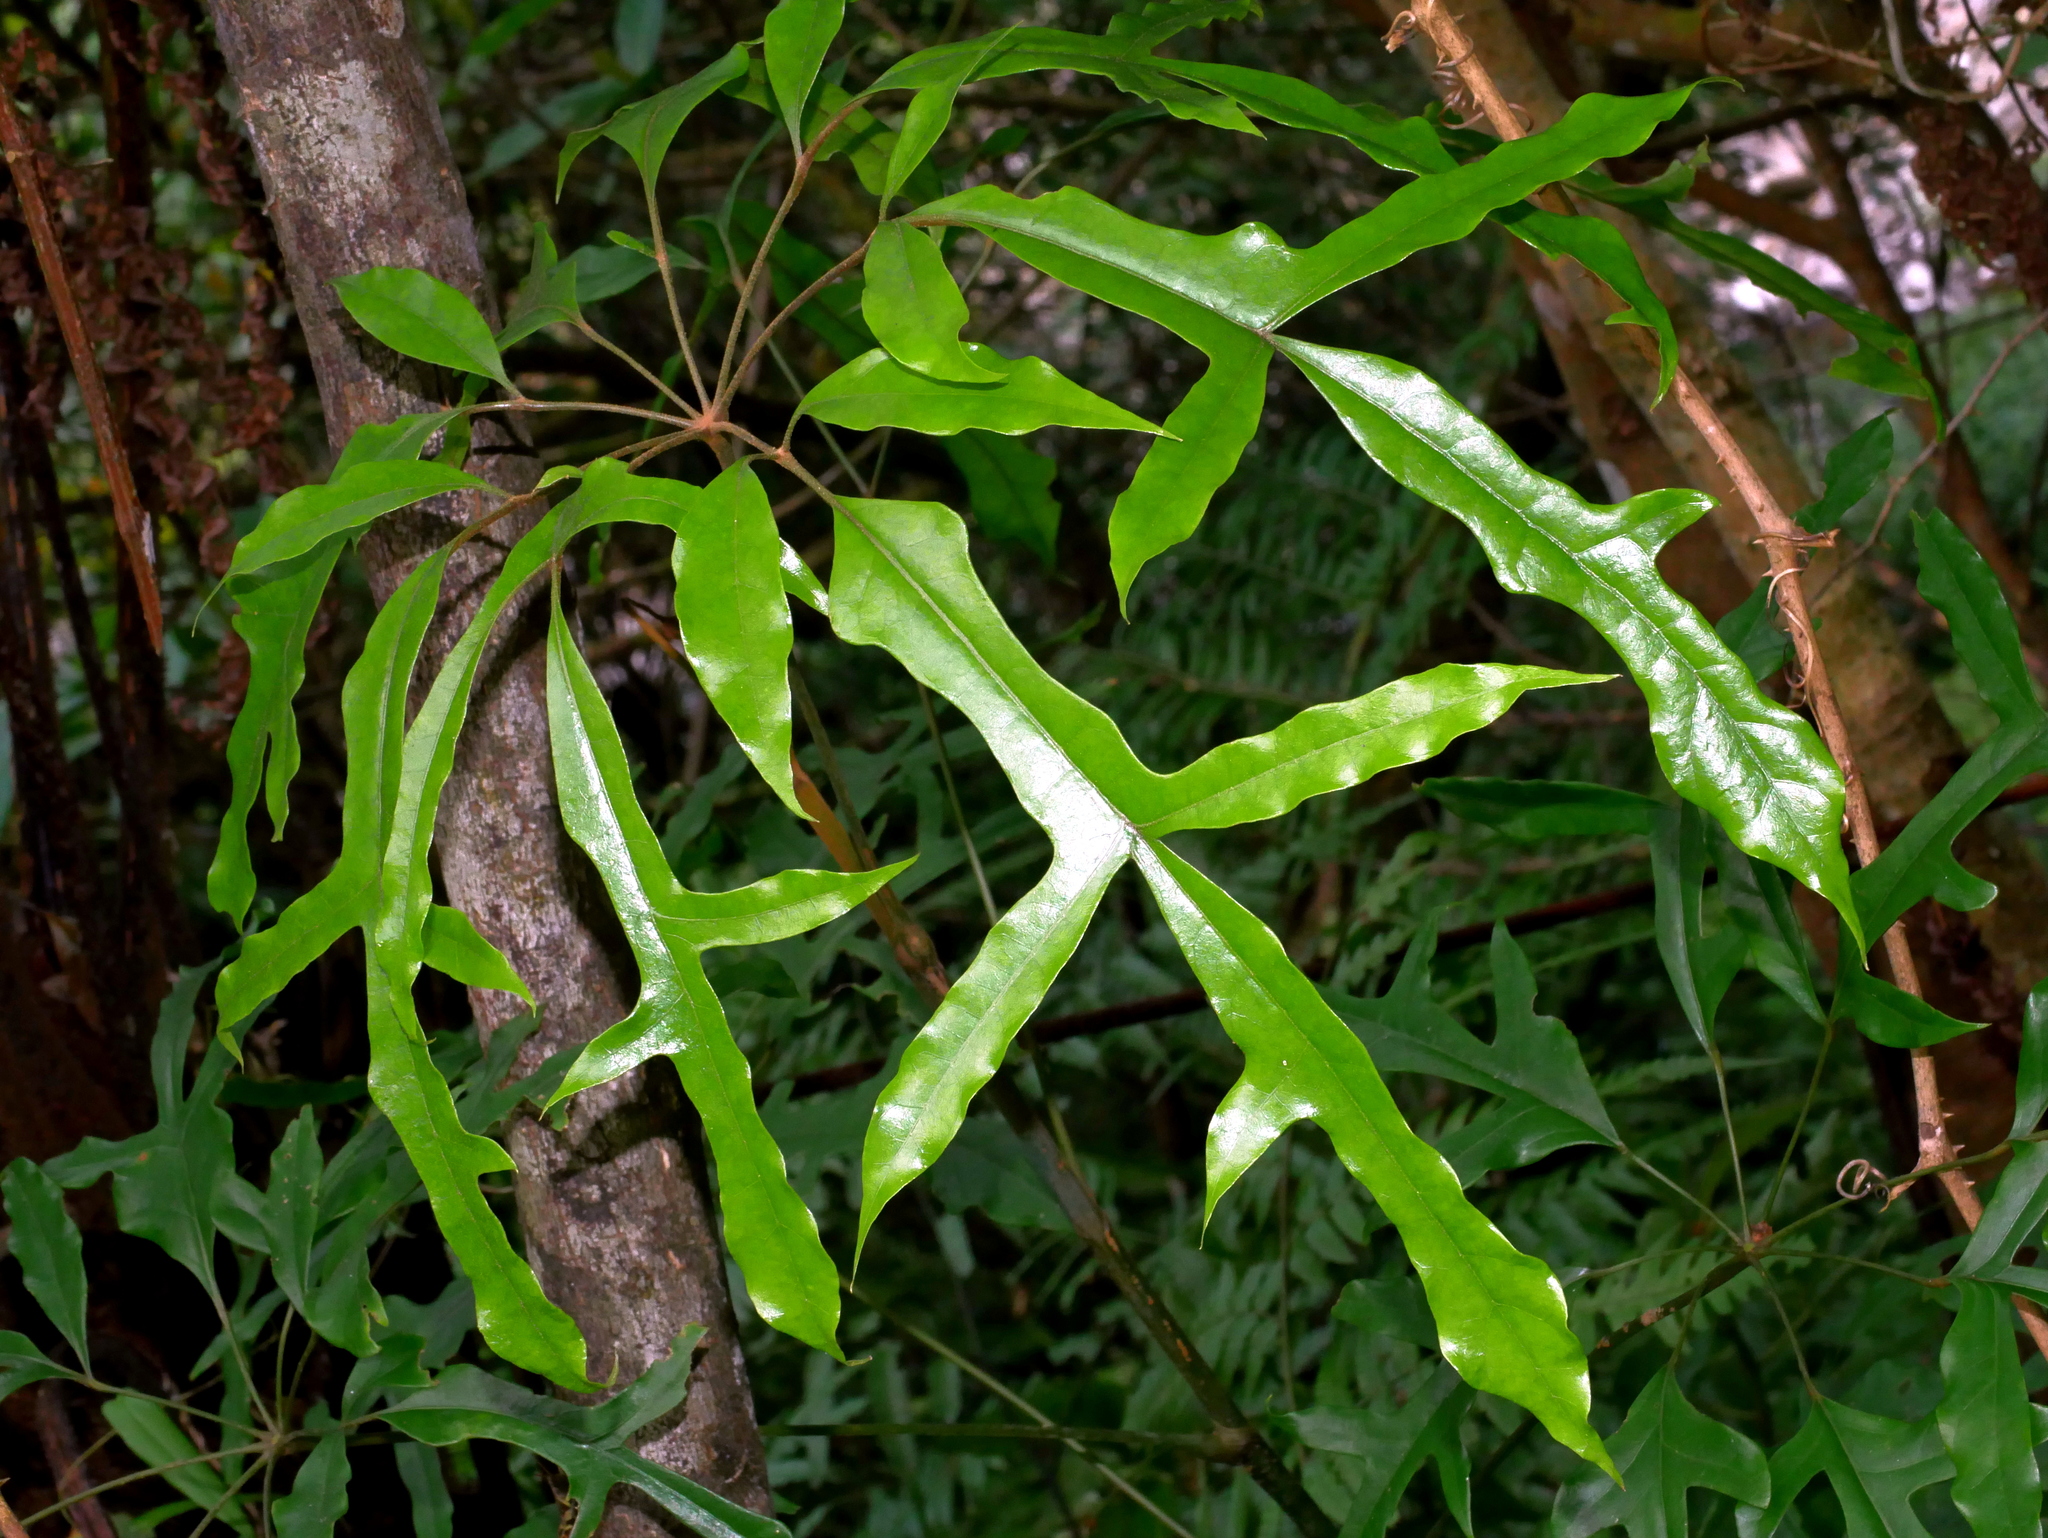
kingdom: Plantae
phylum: Tracheophyta
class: Magnoliopsida
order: Apiales
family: Araliaceae
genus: Heptapleurum
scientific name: Heptapleurum heptaphyllum
